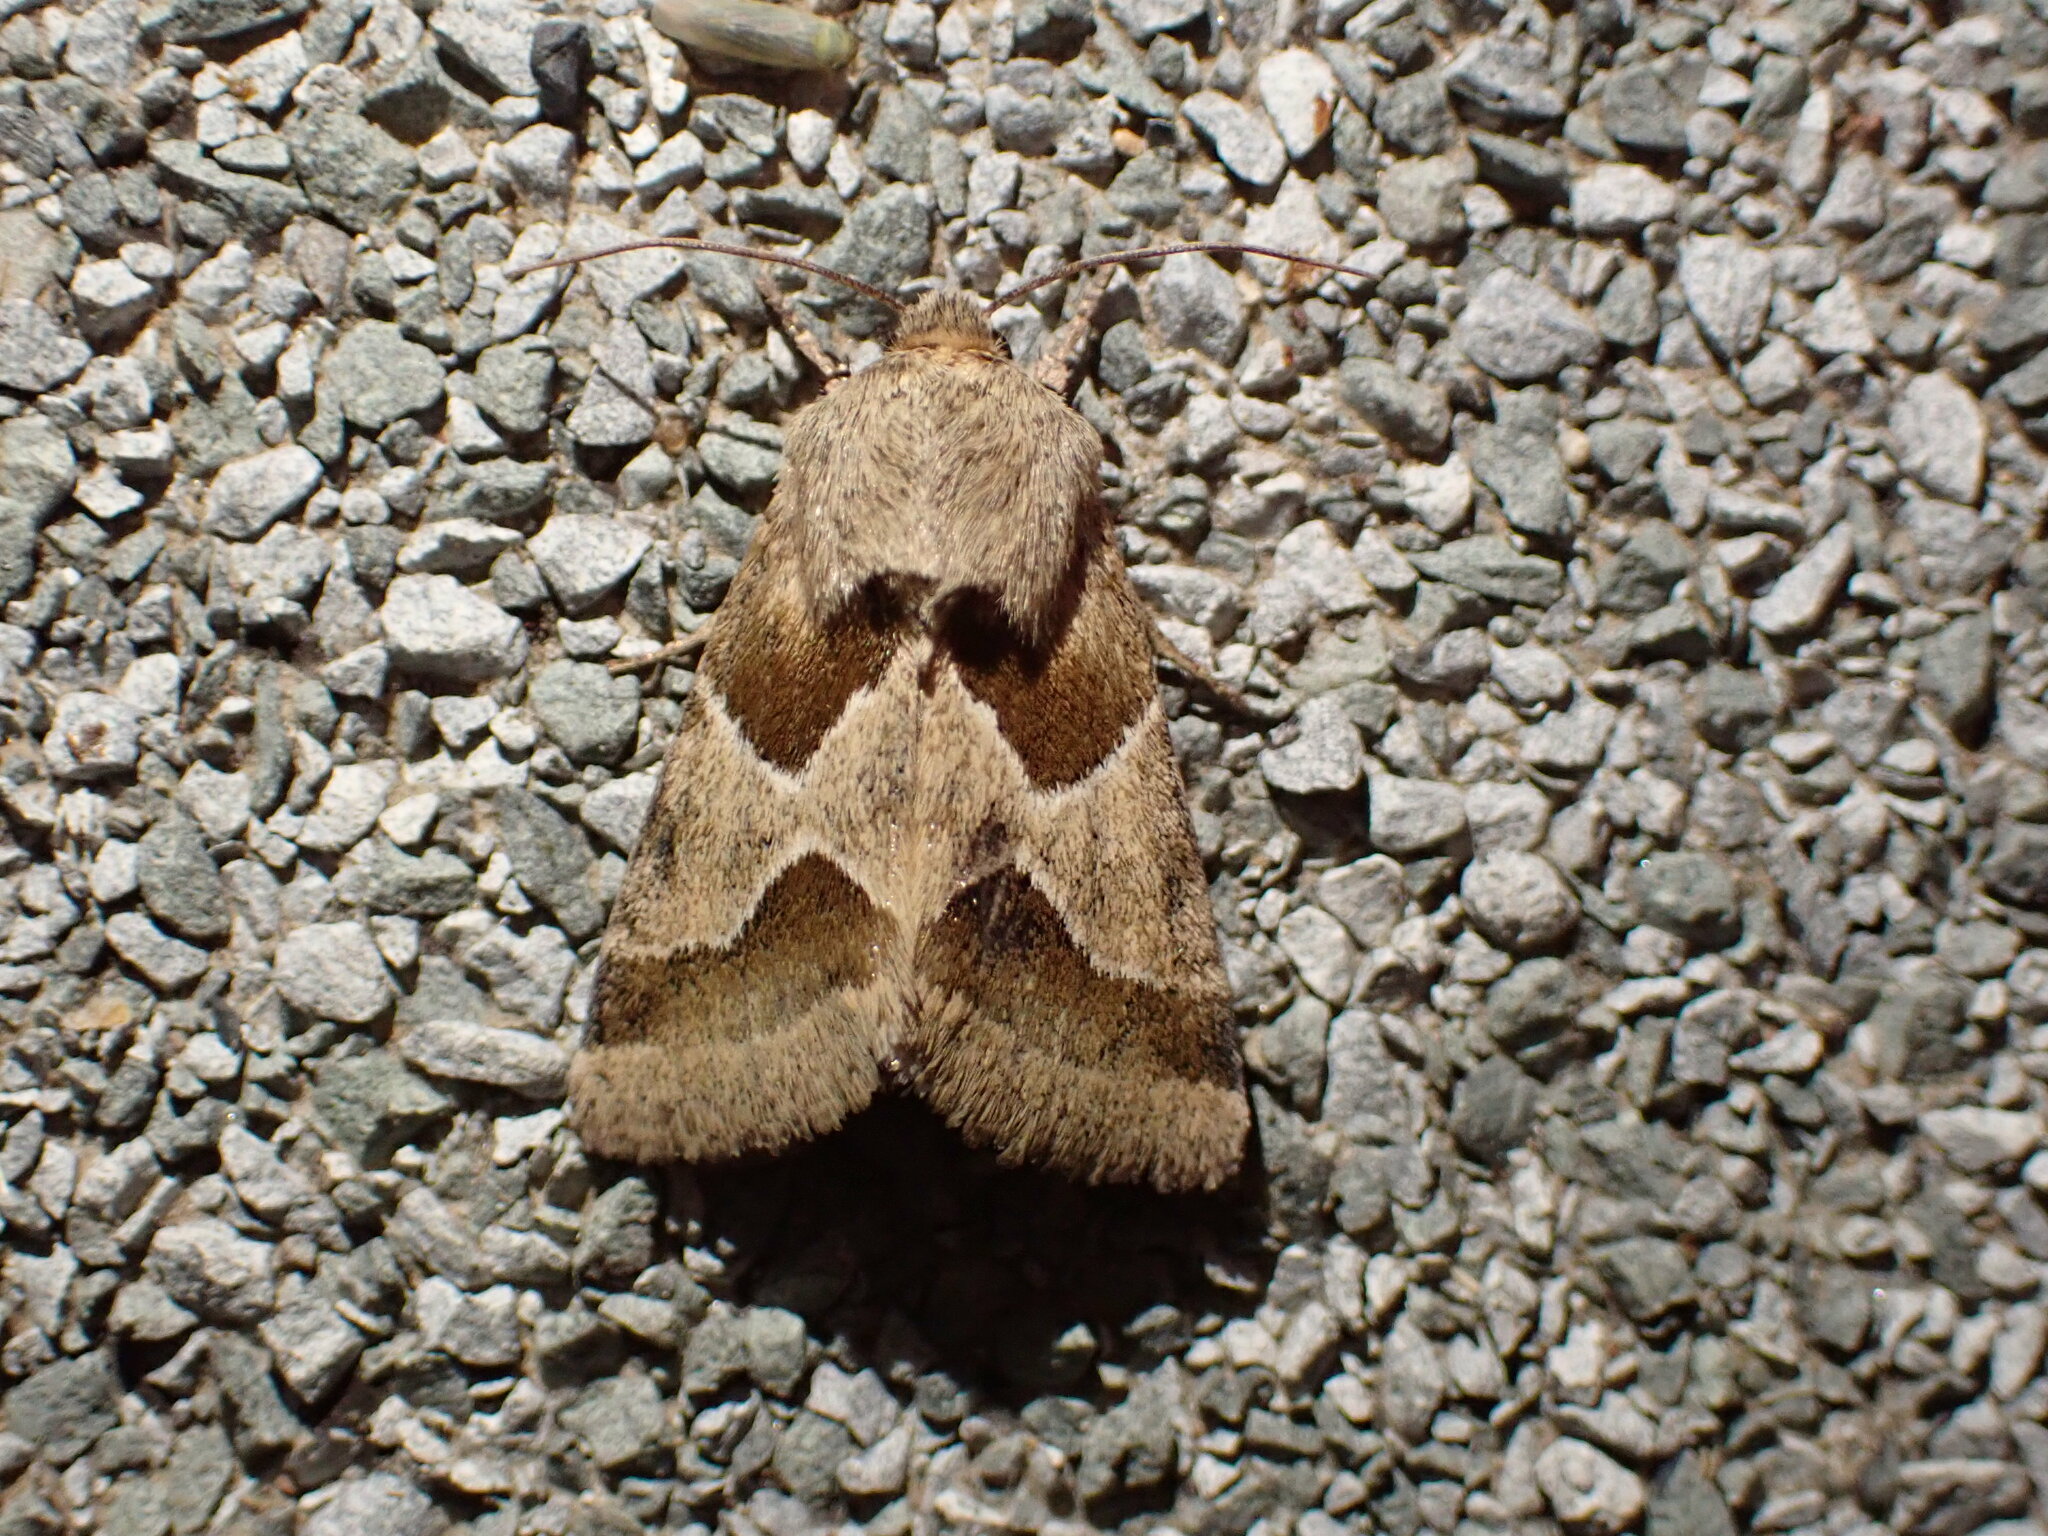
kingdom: Animalia
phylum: Arthropoda
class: Insecta
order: Lepidoptera
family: Noctuidae
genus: Schinia
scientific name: Schinia jaguarina
